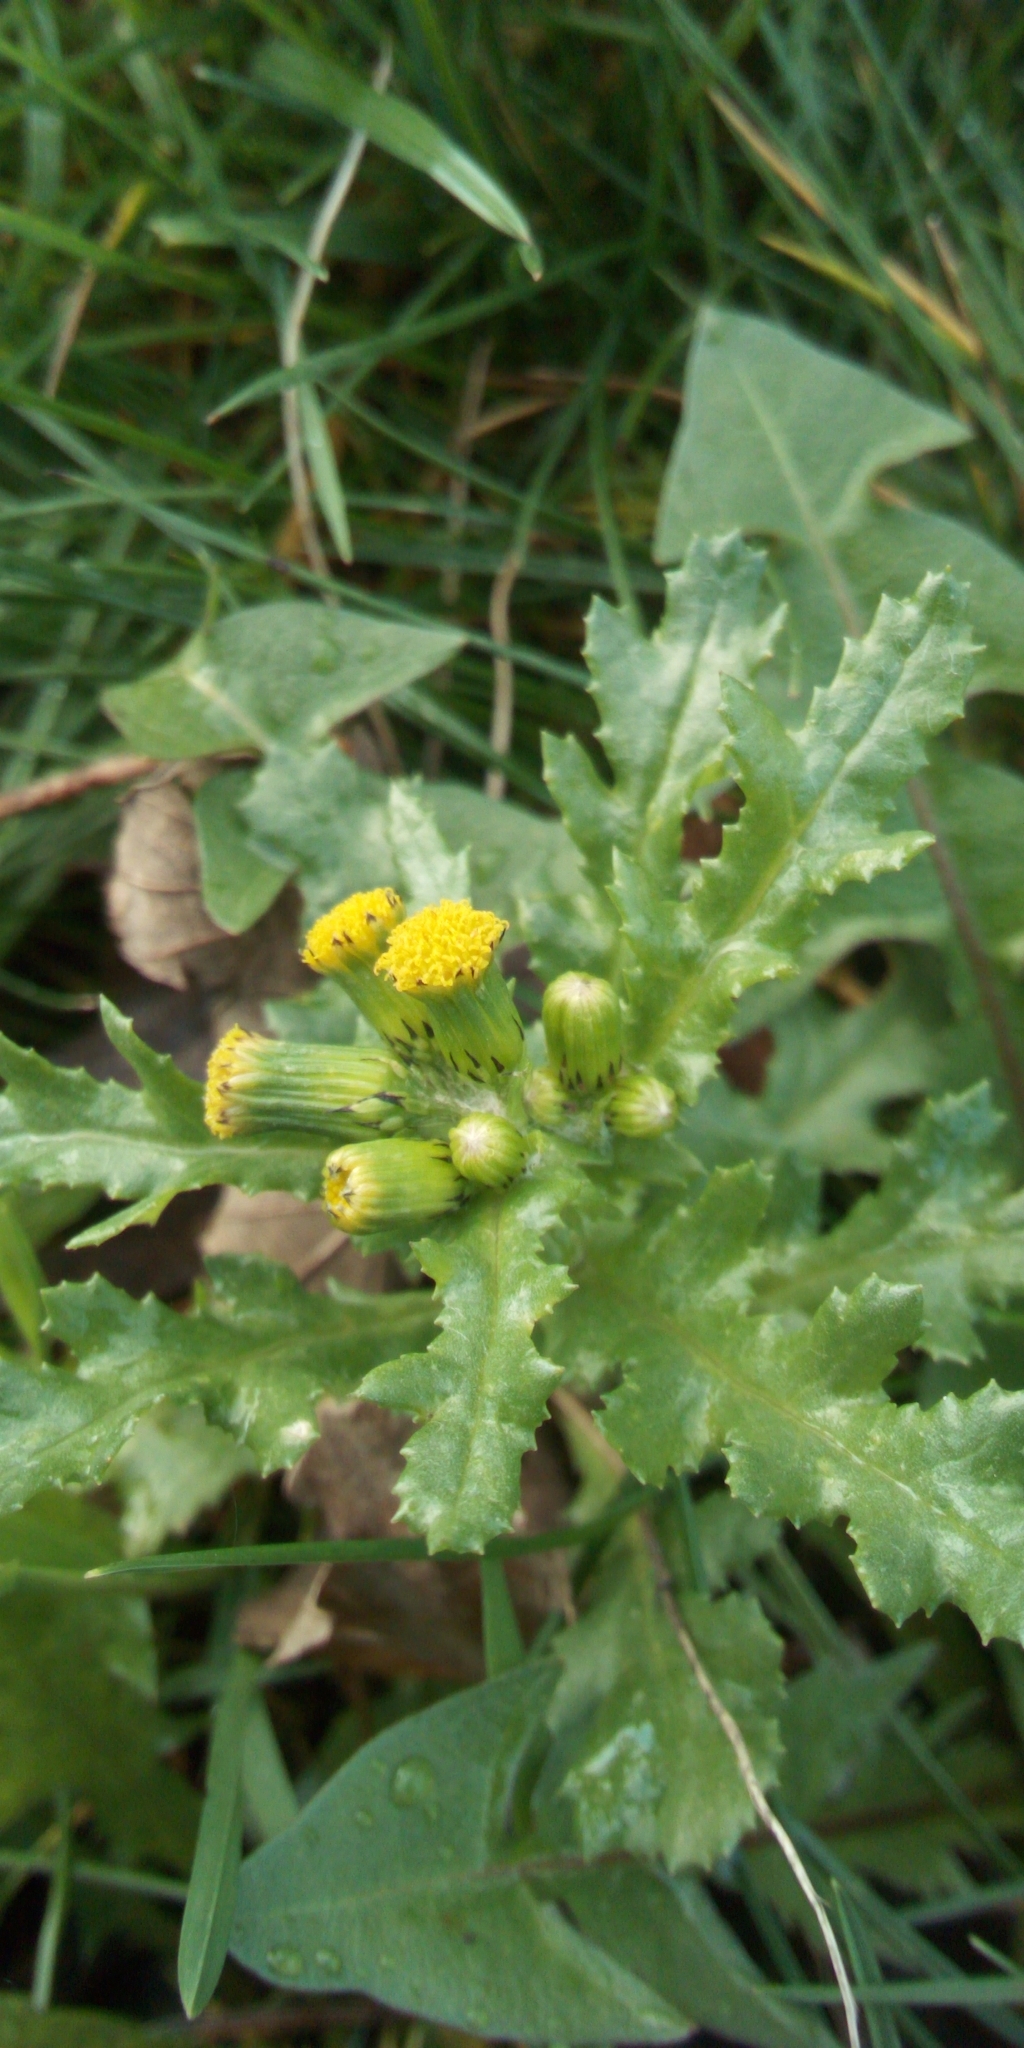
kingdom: Plantae
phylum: Tracheophyta
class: Magnoliopsida
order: Asterales
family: Asteraceae
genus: Senecio
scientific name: Senecio vulgaris
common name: Old-man-in-the-spring
